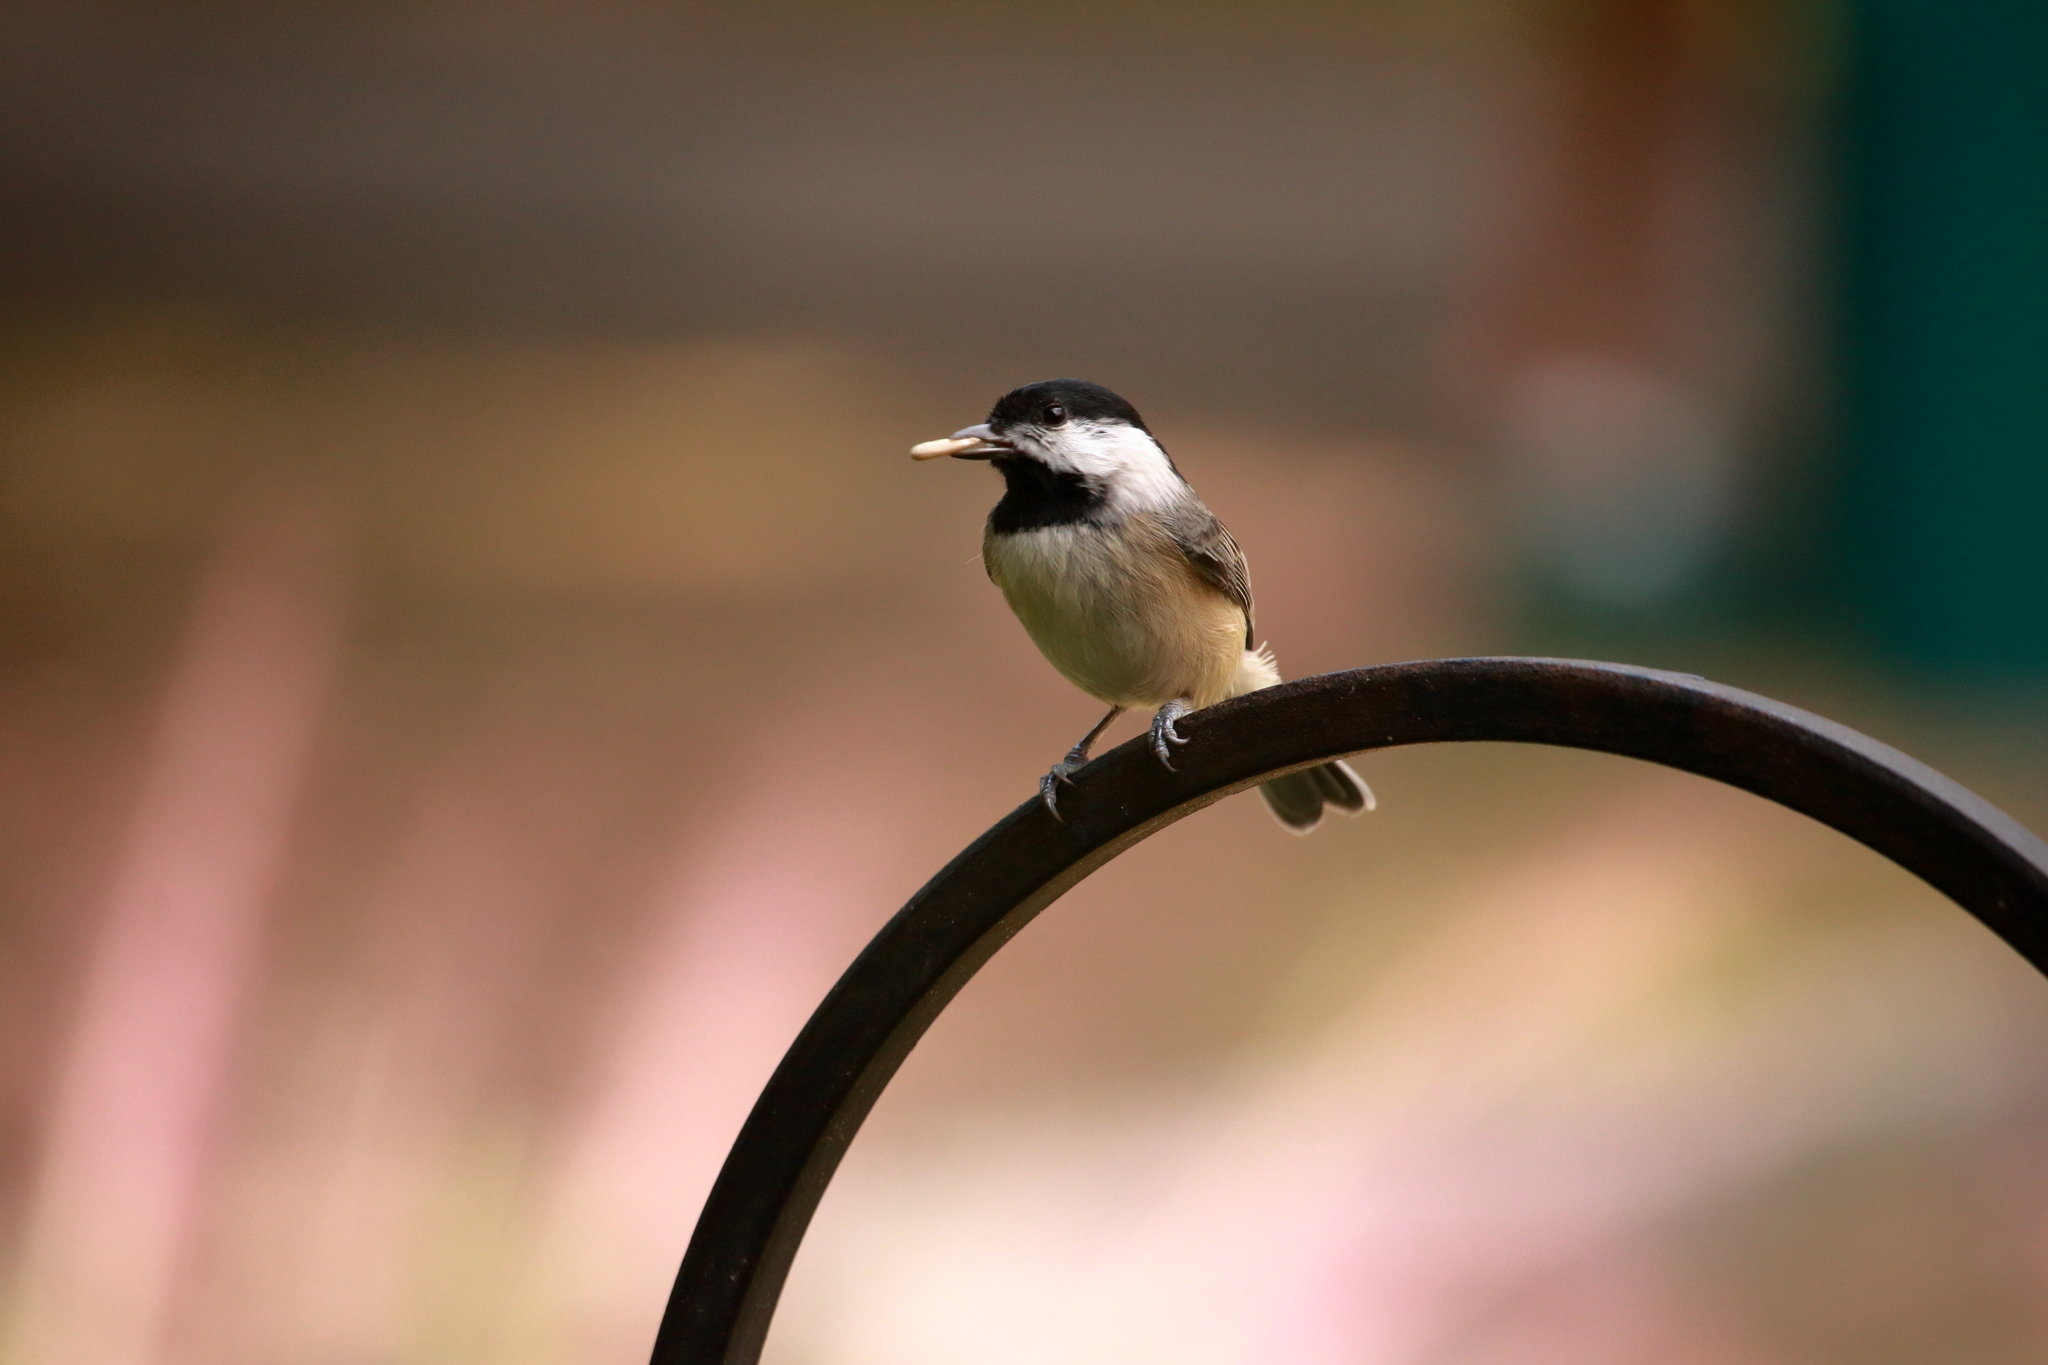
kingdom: Animalia
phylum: Chordata
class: Aves
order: Passeriformes
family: Paridae
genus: Poecile
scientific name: Poecile carolinensis
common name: Carolina chickadee
